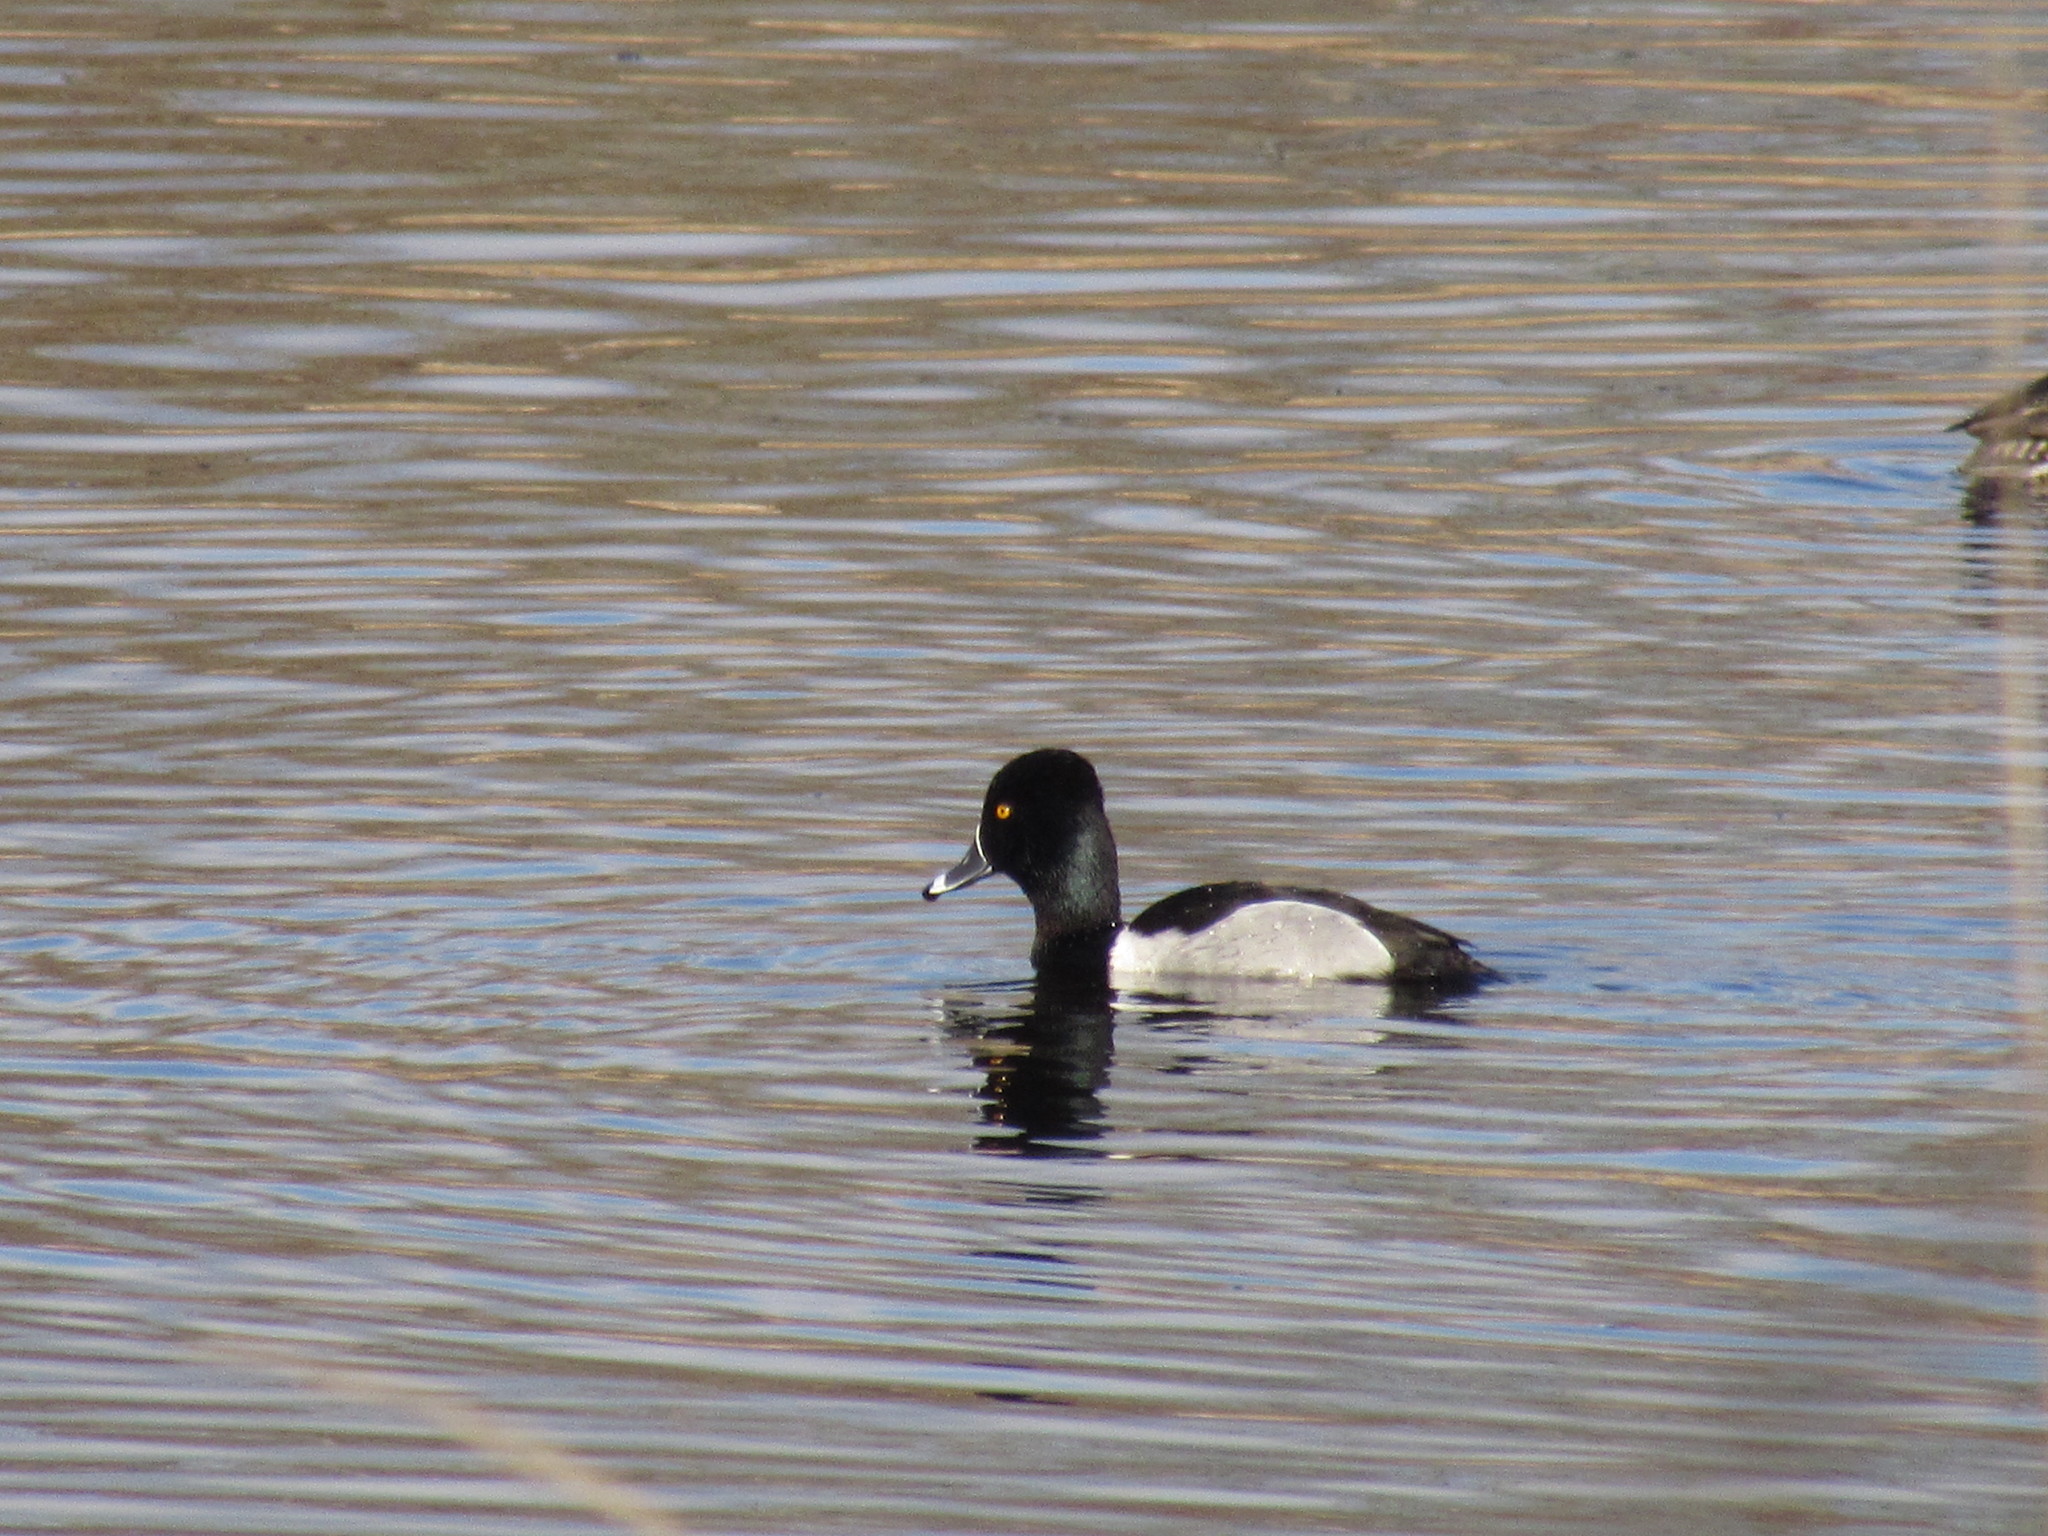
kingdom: Animalia
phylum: Chordata
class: Aves
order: Anseriformes
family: Anatidae
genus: Aythya
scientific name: Aythya collaris
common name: Ring-necked duck
